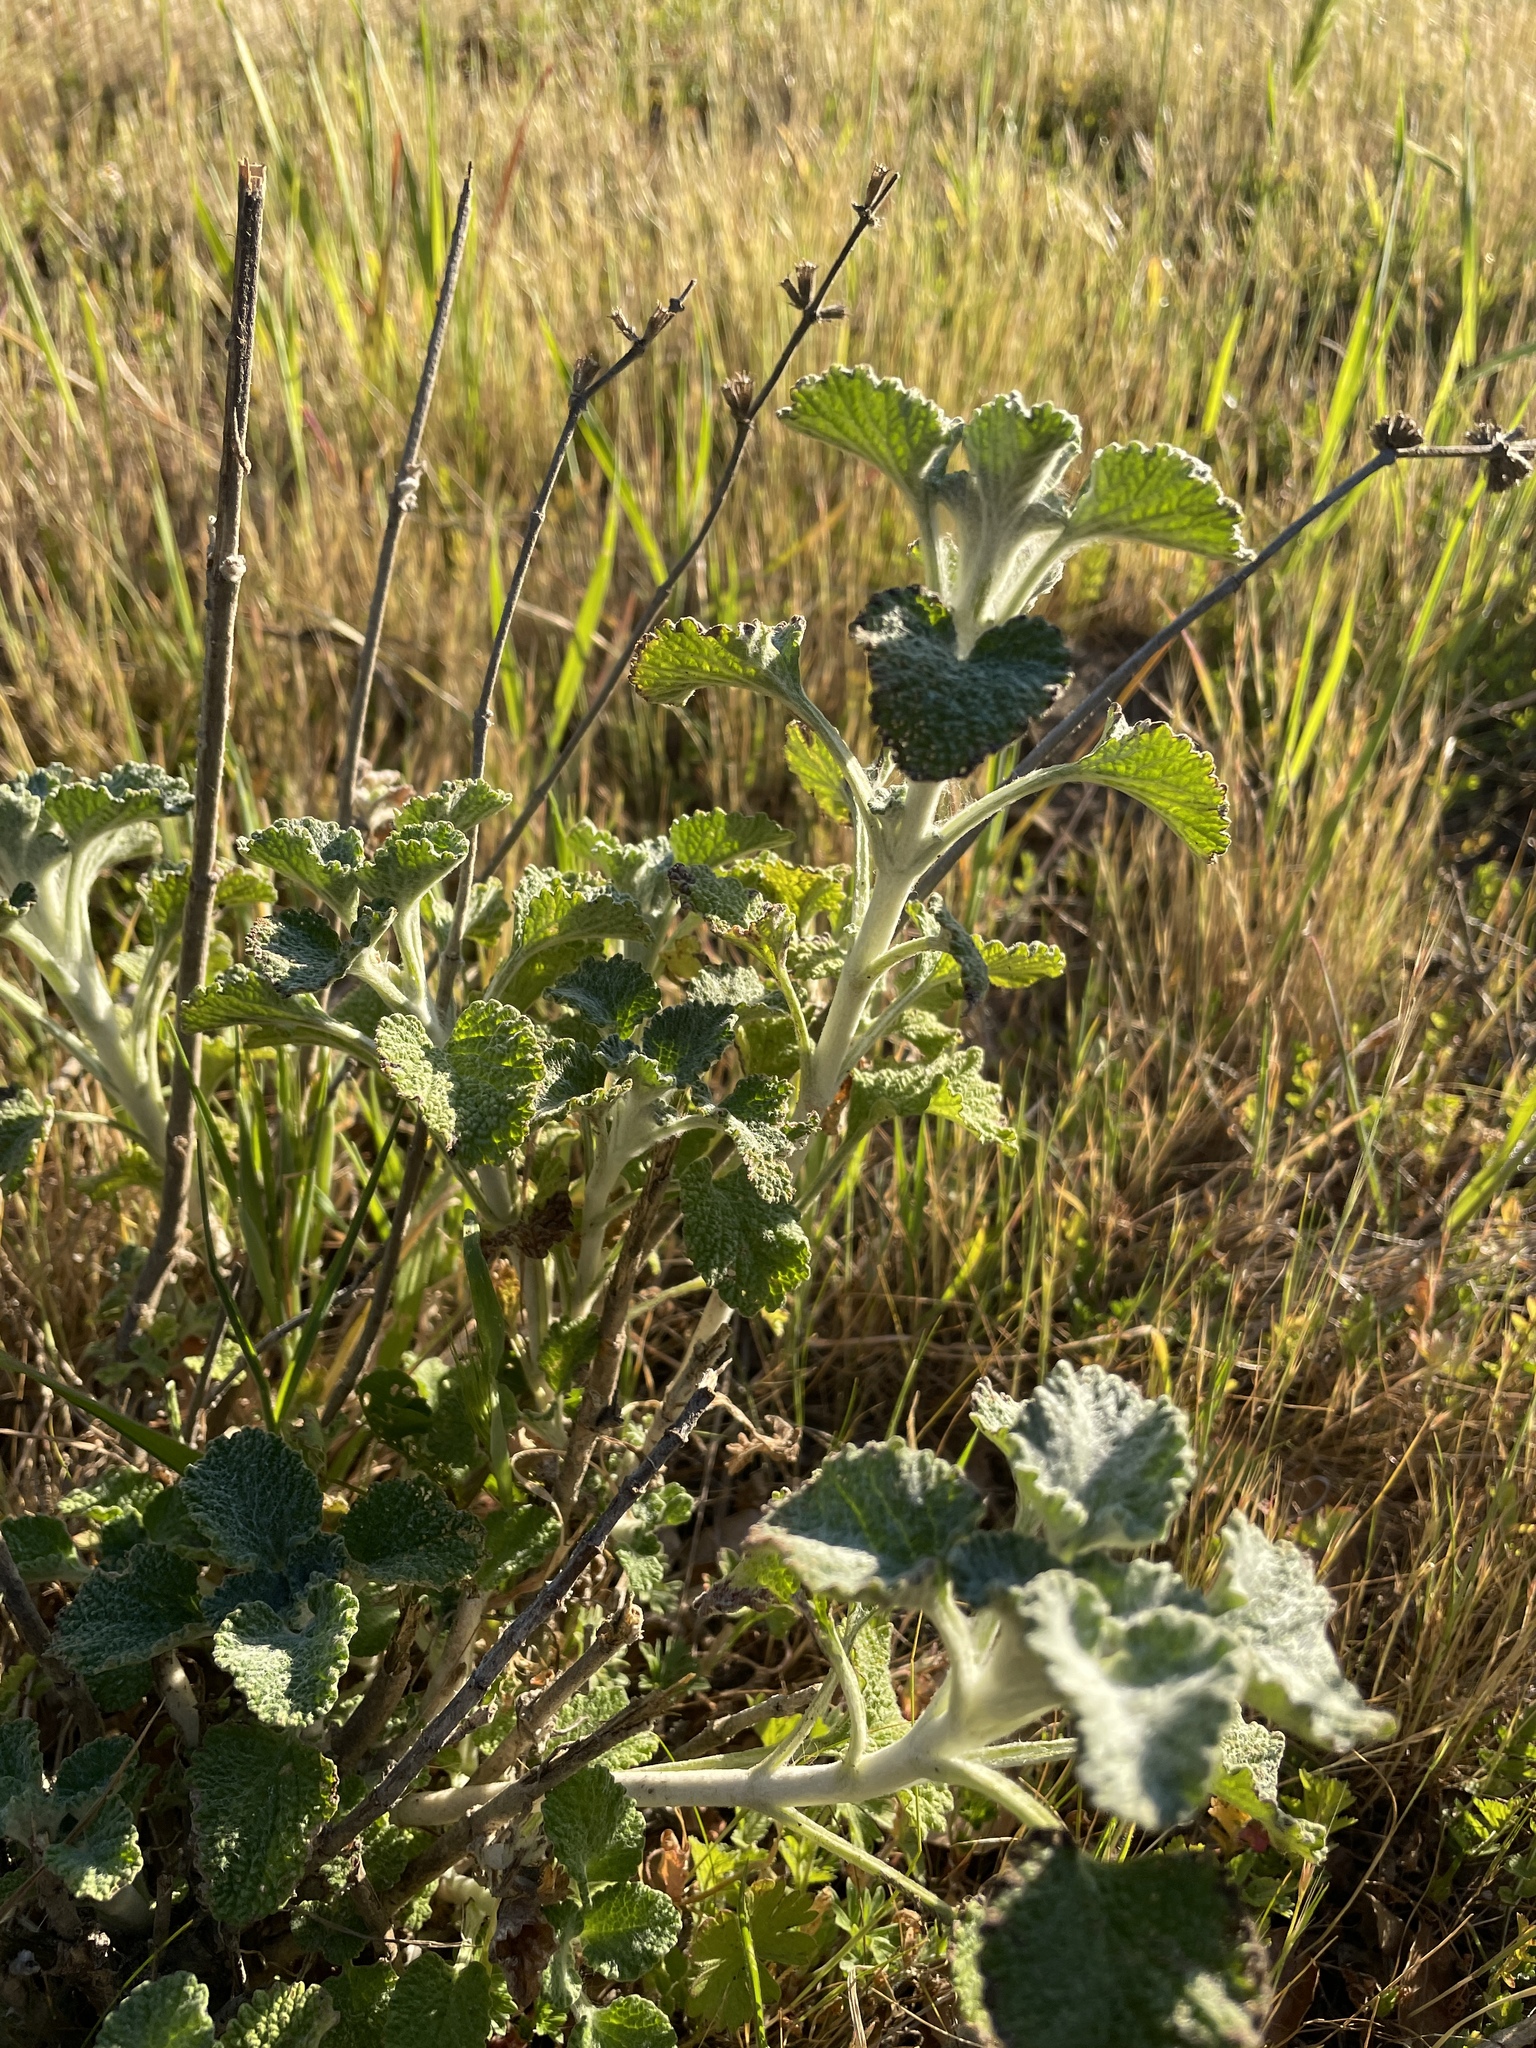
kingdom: Plantae
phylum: Tracheophyta
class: Magnoliopsida
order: Lamiales
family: Lamiaceae
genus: Marrubium
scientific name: Marrubium vulgare
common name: Horehound
